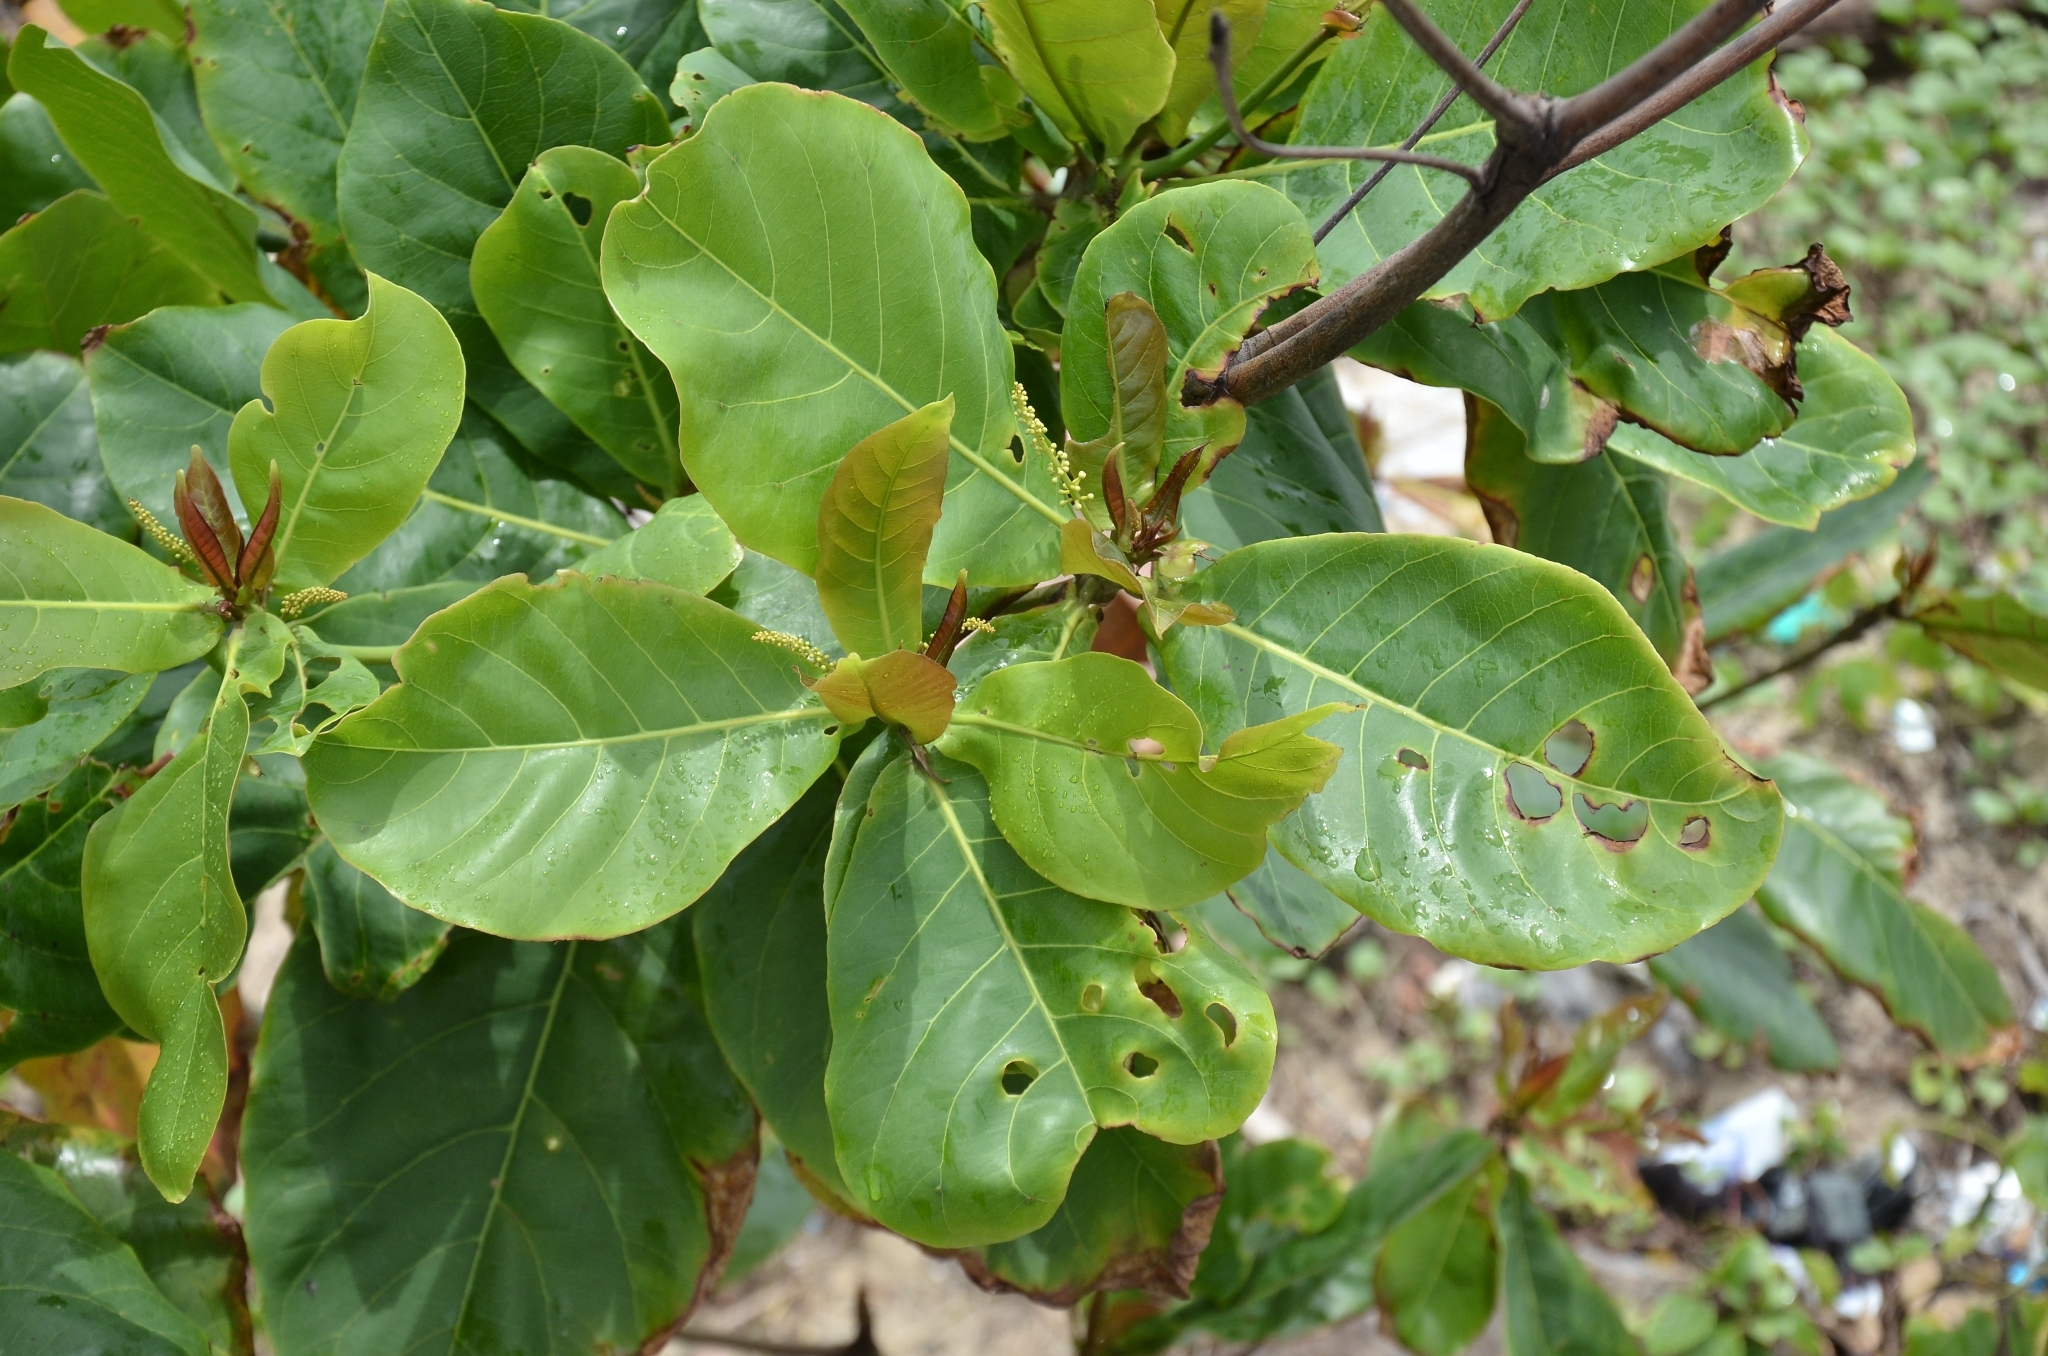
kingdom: Plantae
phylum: Tracheophyta
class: Magnoliopsida
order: Myrtales
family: Combretaceae
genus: Terminalia
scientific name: Terminalia catappa
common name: Tropical almond
